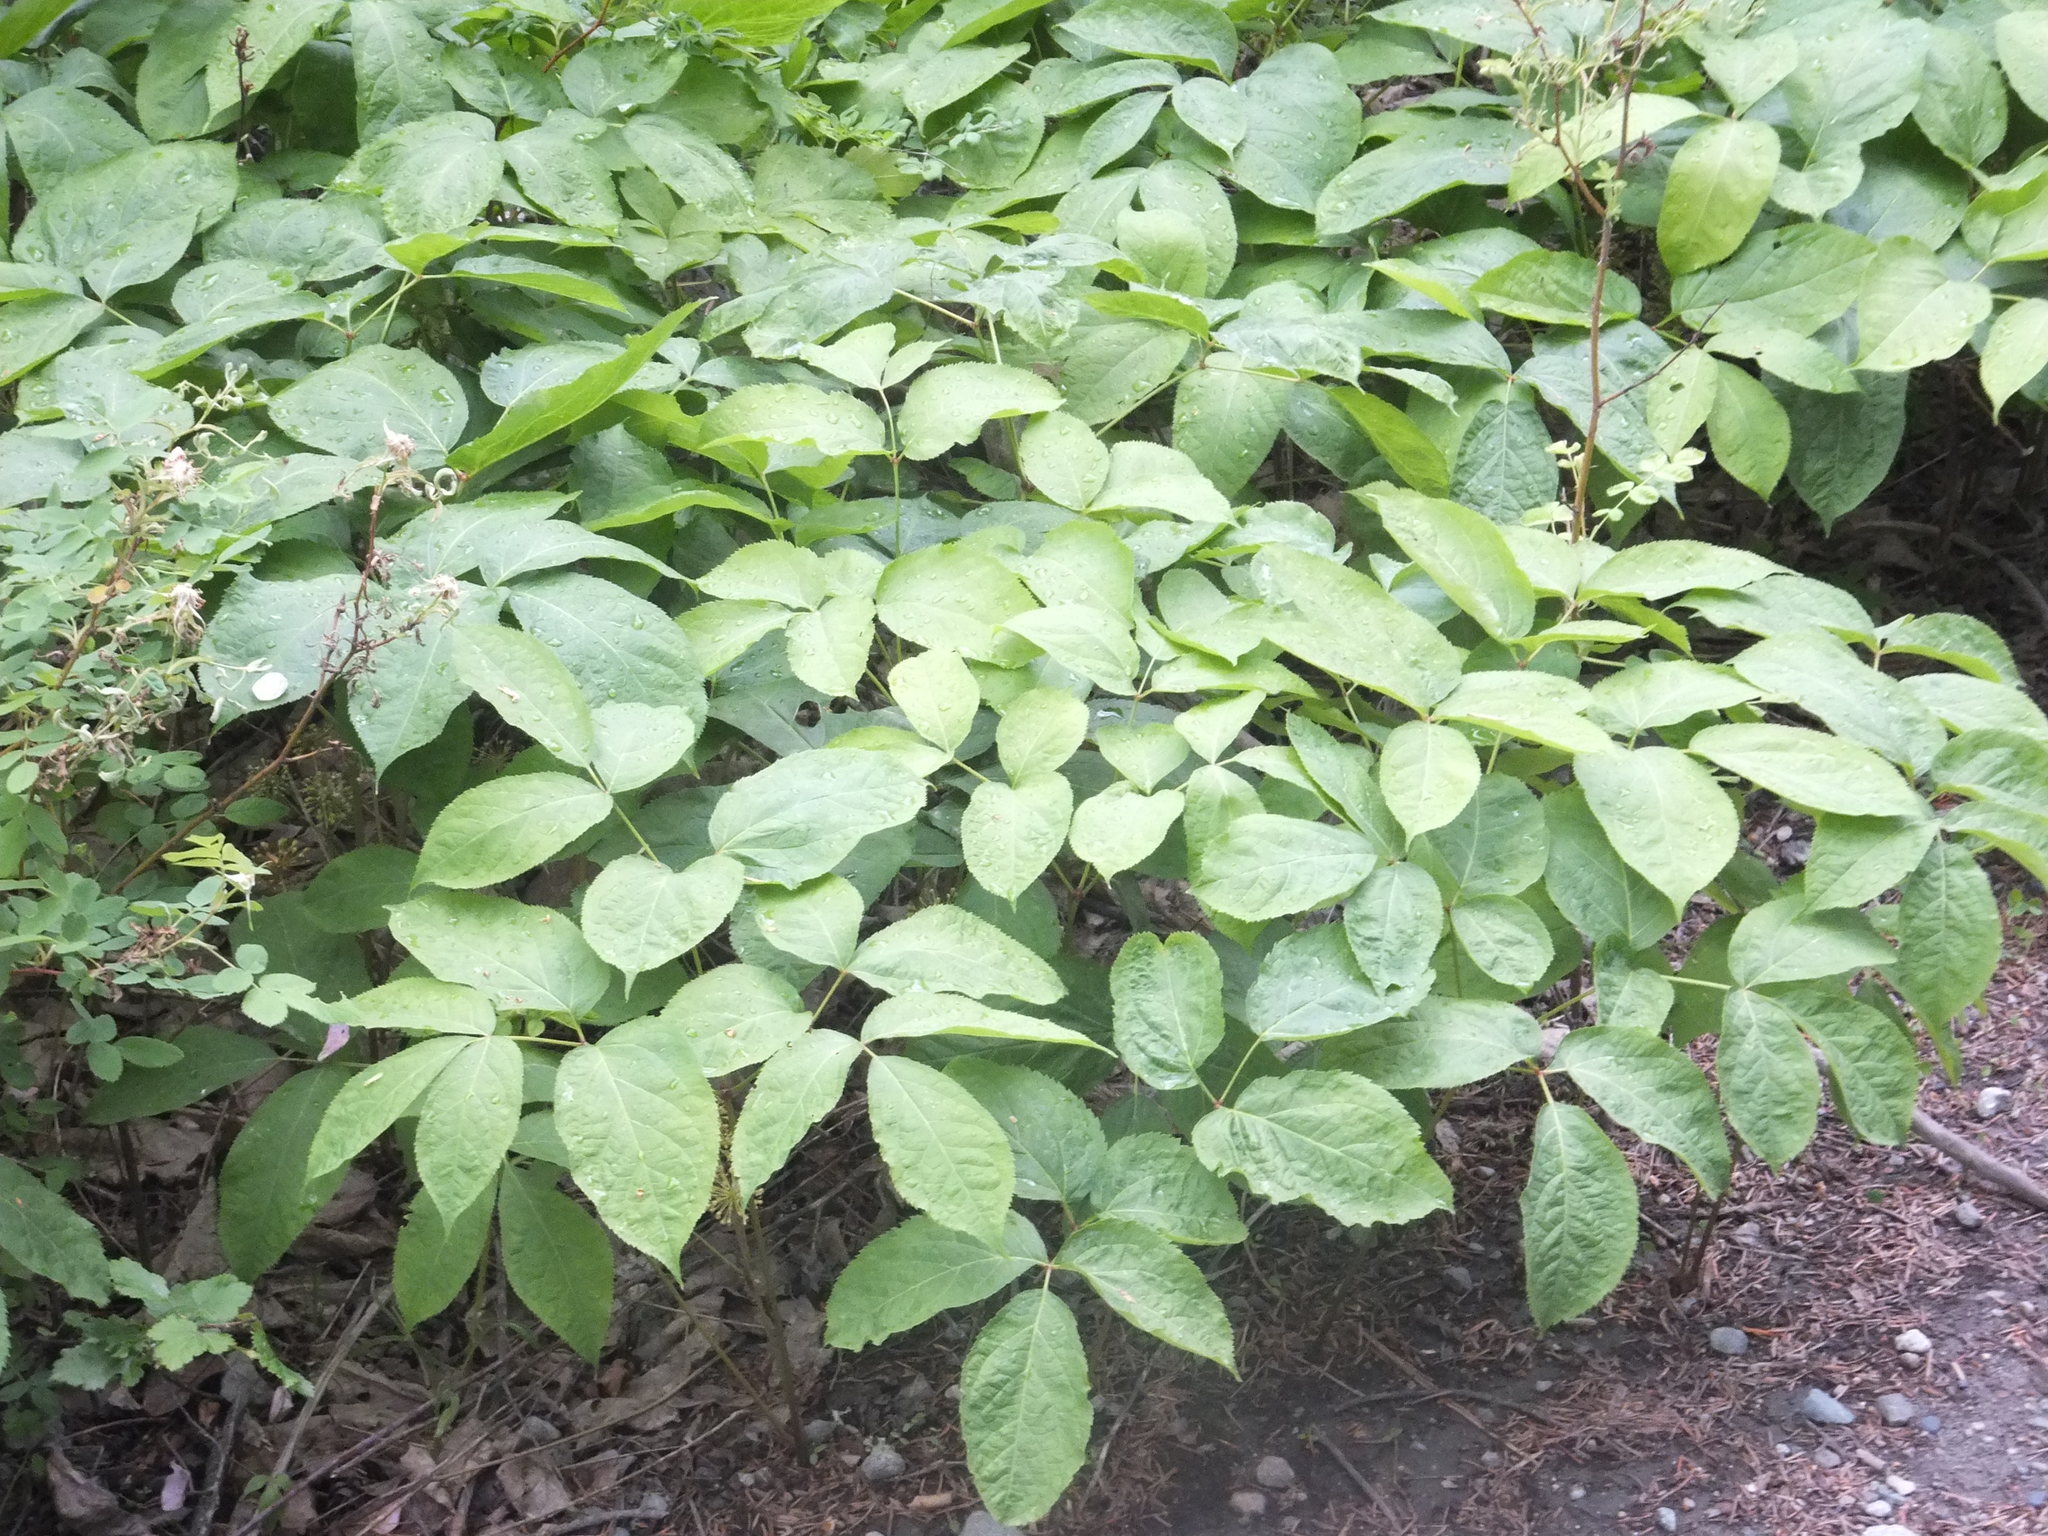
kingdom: Plantae
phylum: Tracheophyta
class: Magnoliopsida
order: Apiales
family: Araliaceae
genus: Aralia
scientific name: Aralia nudicaulis
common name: Wild sarsaparilla
